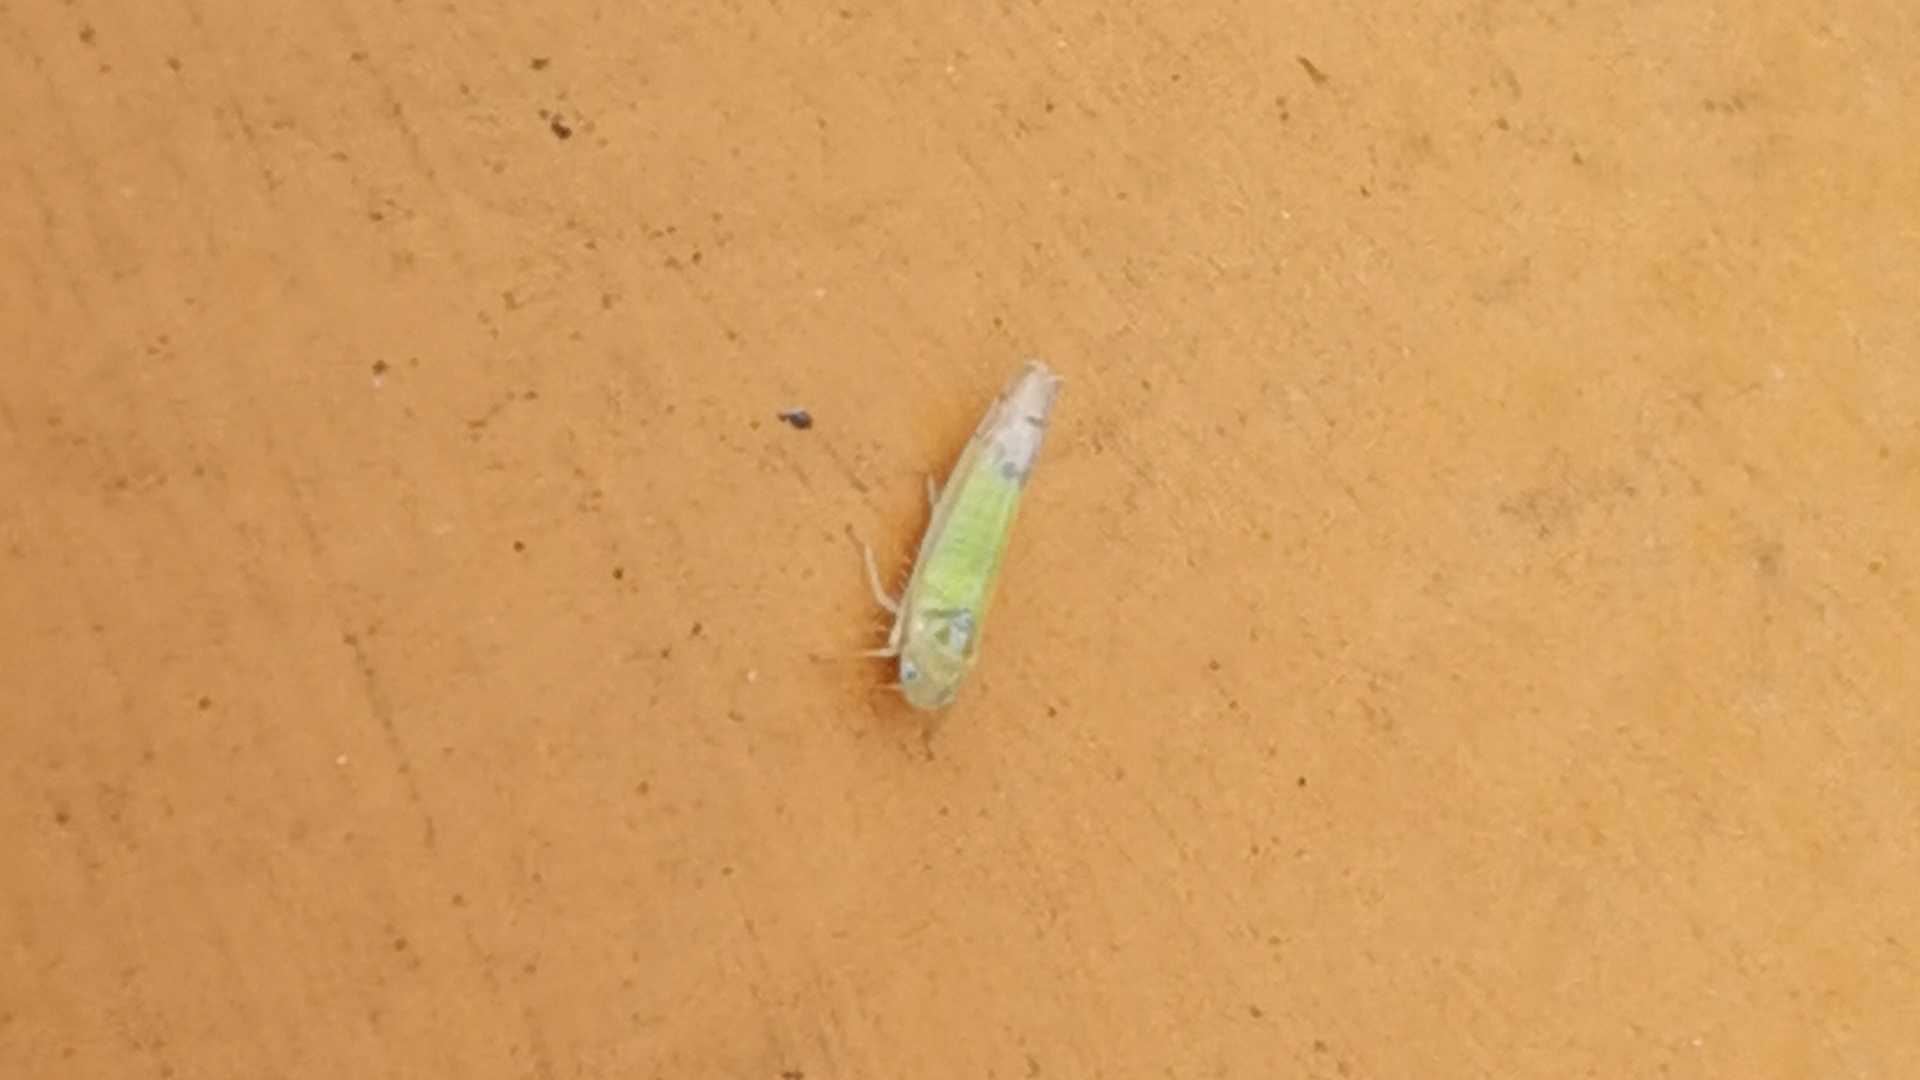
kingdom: Animalia
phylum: Arthropoda
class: Insecta
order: Hemiptera
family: Cicadellidae
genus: Ribautiana
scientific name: Ribautiana
